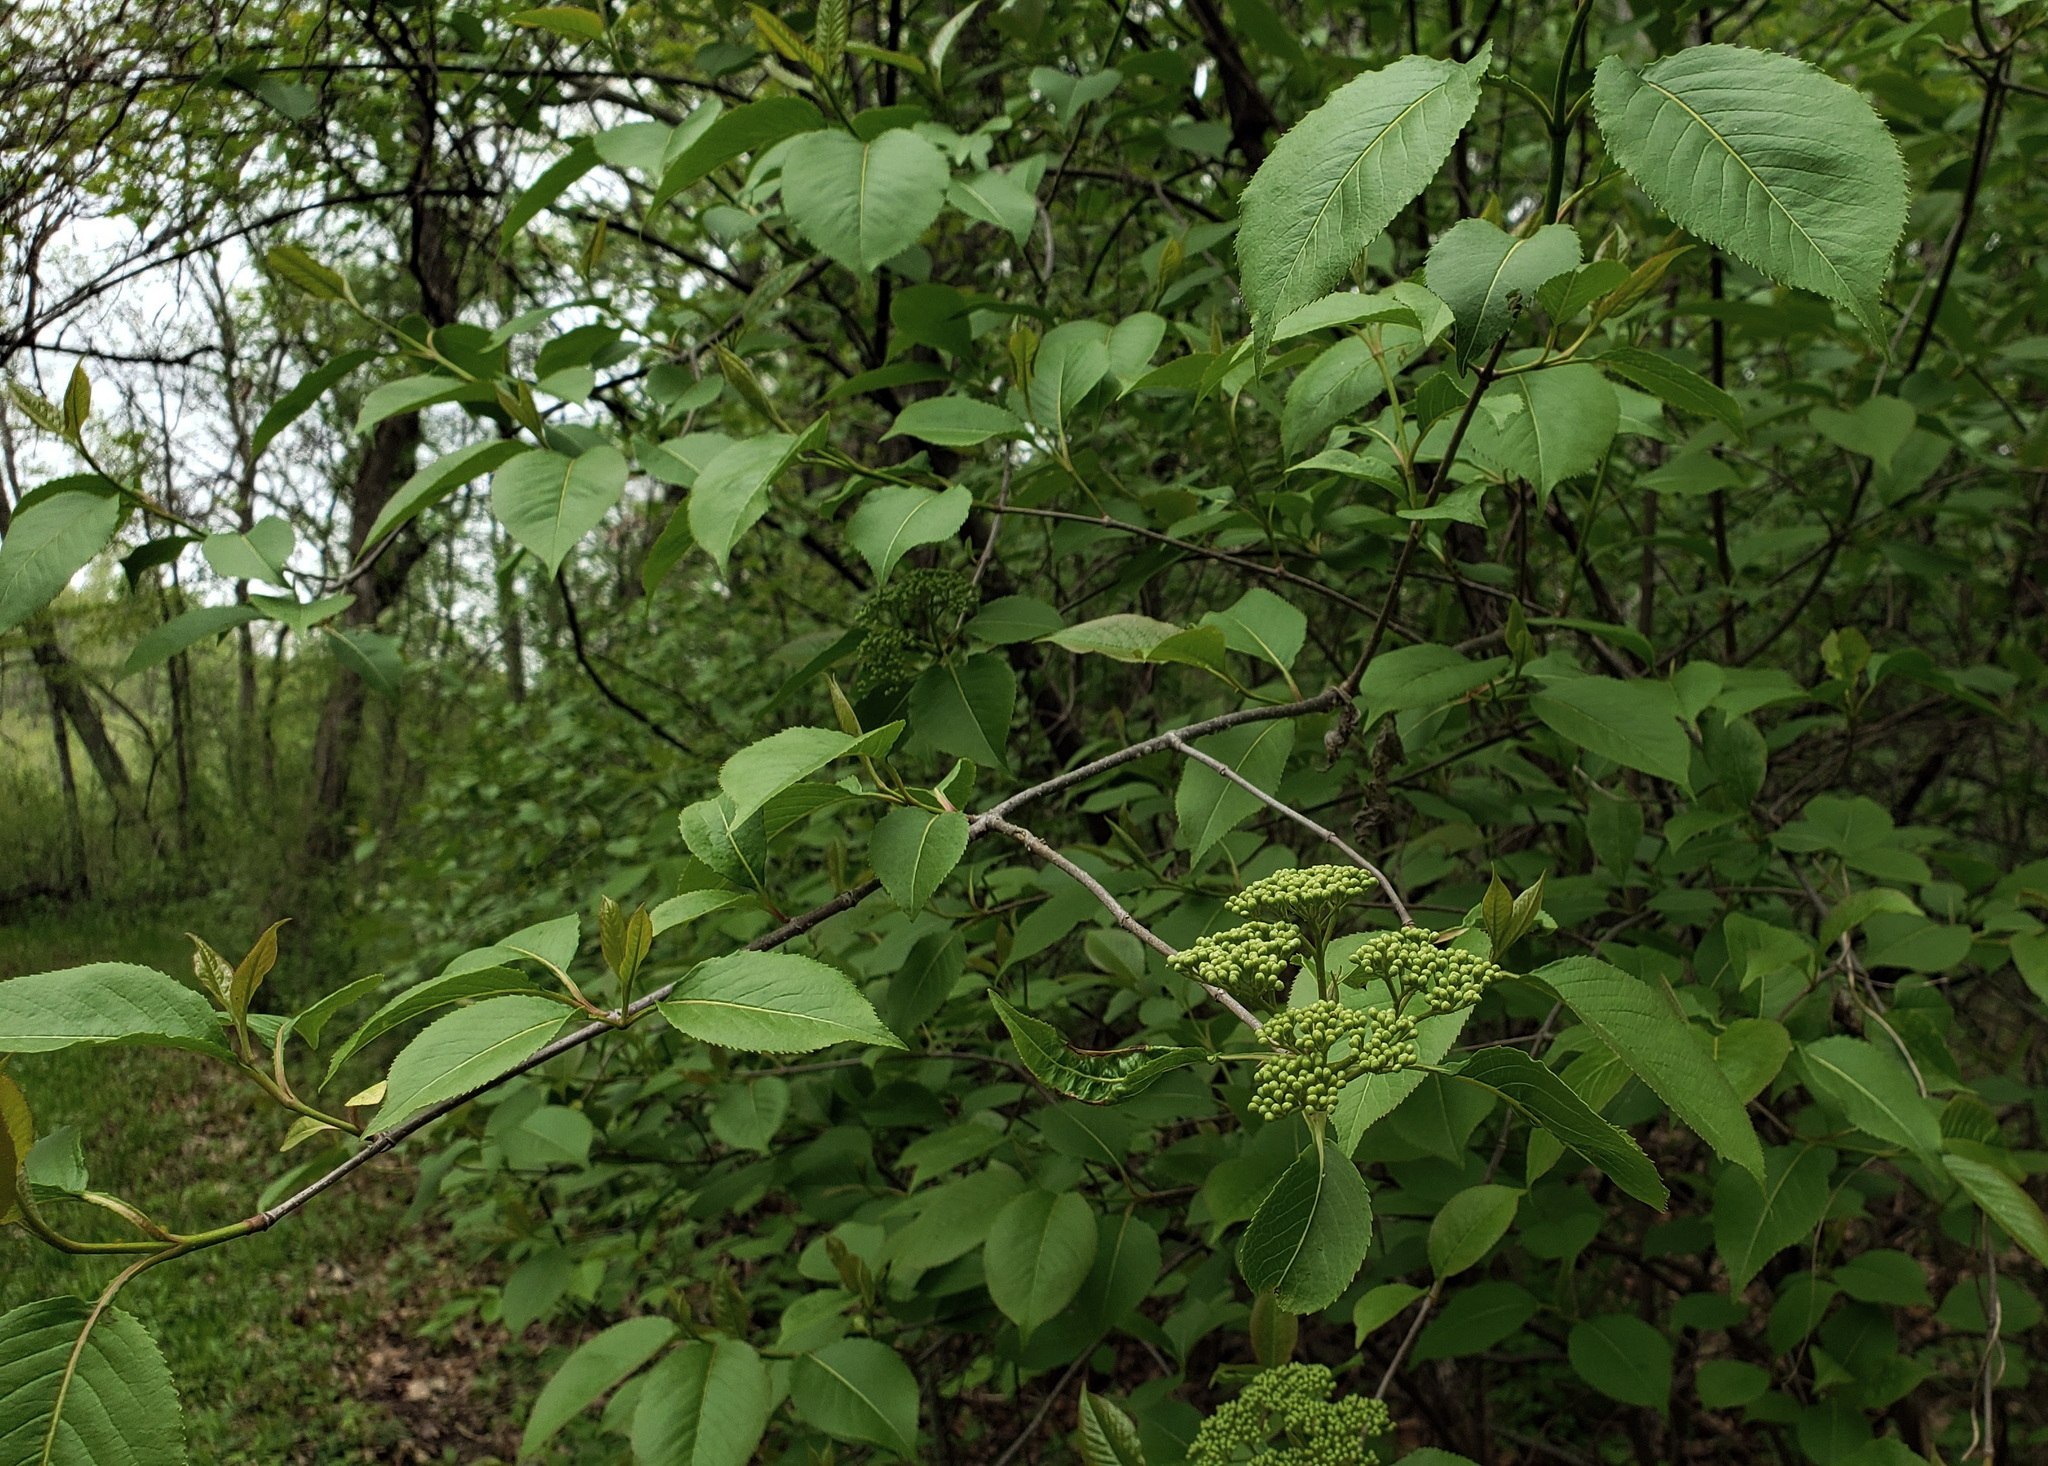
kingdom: Plantae
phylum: Tracheophyta
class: Magnoliopsida
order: Dipsacales
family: Viburnaceae
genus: Viburnum
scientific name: Viburnum lentago
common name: Black haw
